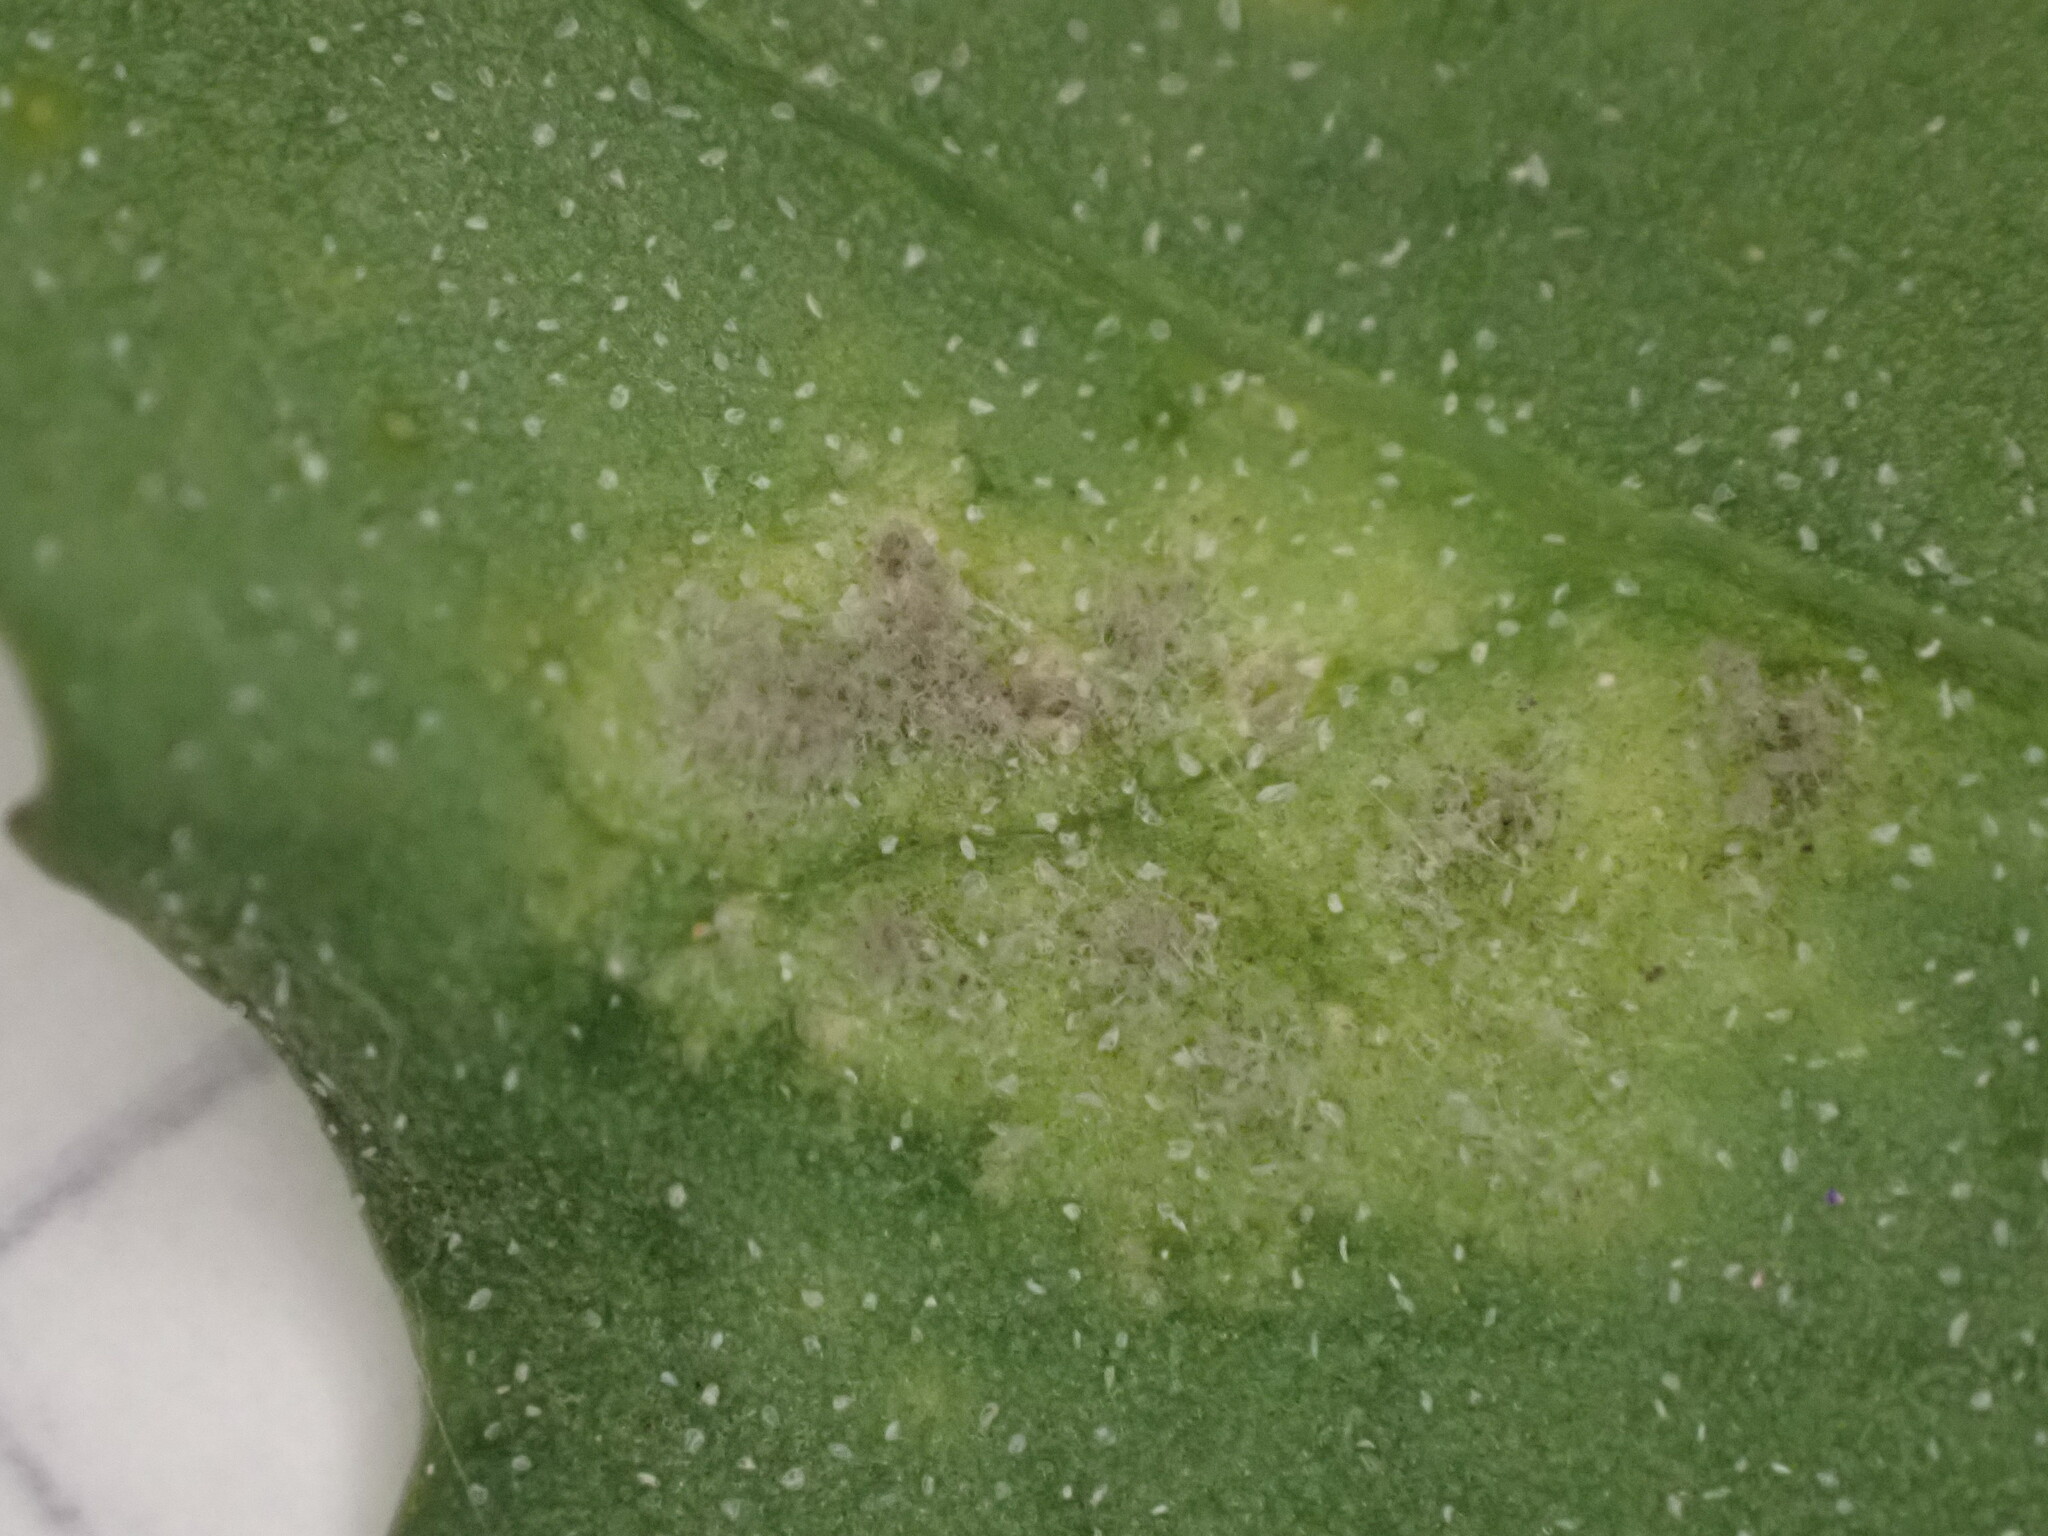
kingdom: Chromista
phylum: Oomycota
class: Peronosporea
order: Peronosporales
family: Peronosporaceae
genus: Peronospora
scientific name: Peronospora farinosa
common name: Beet downy mildew
